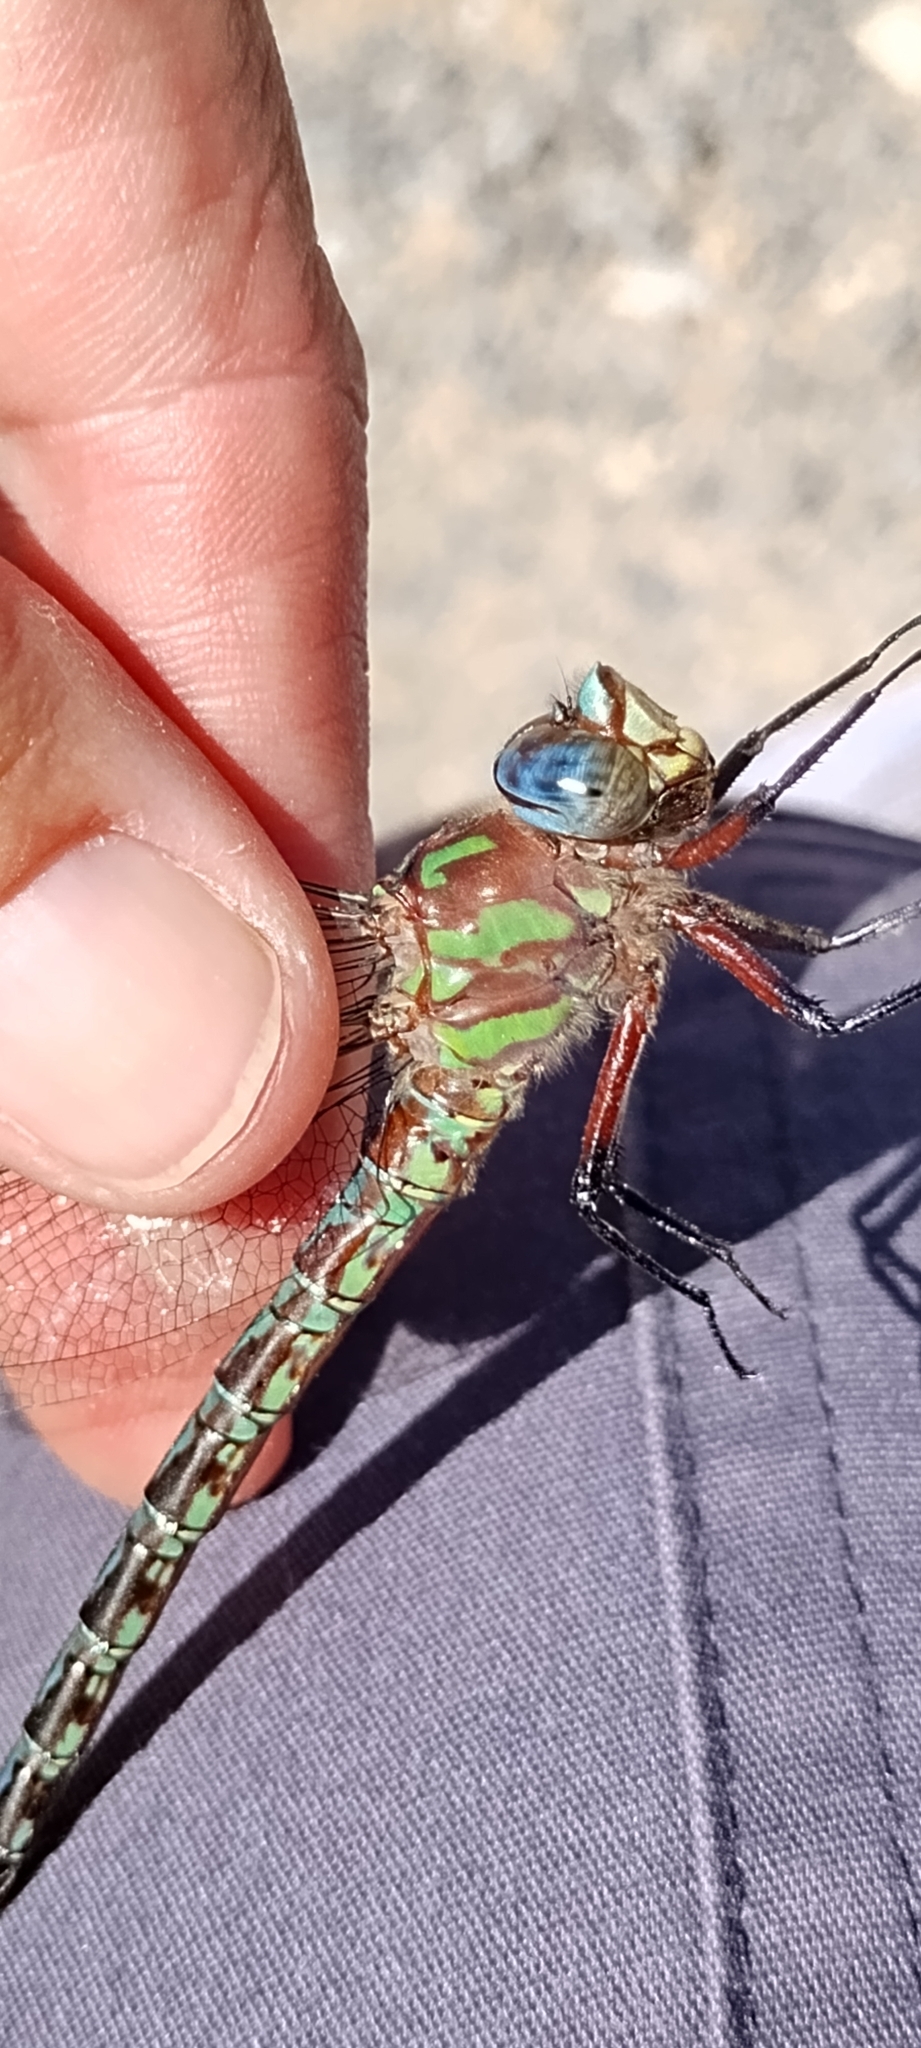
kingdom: Animalia
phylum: Arthropoda
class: Insecta
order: Odonata
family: Aeshnidae
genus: Nasiaeschna
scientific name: Nasiaeschna pentacantha
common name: Cyrano darner
